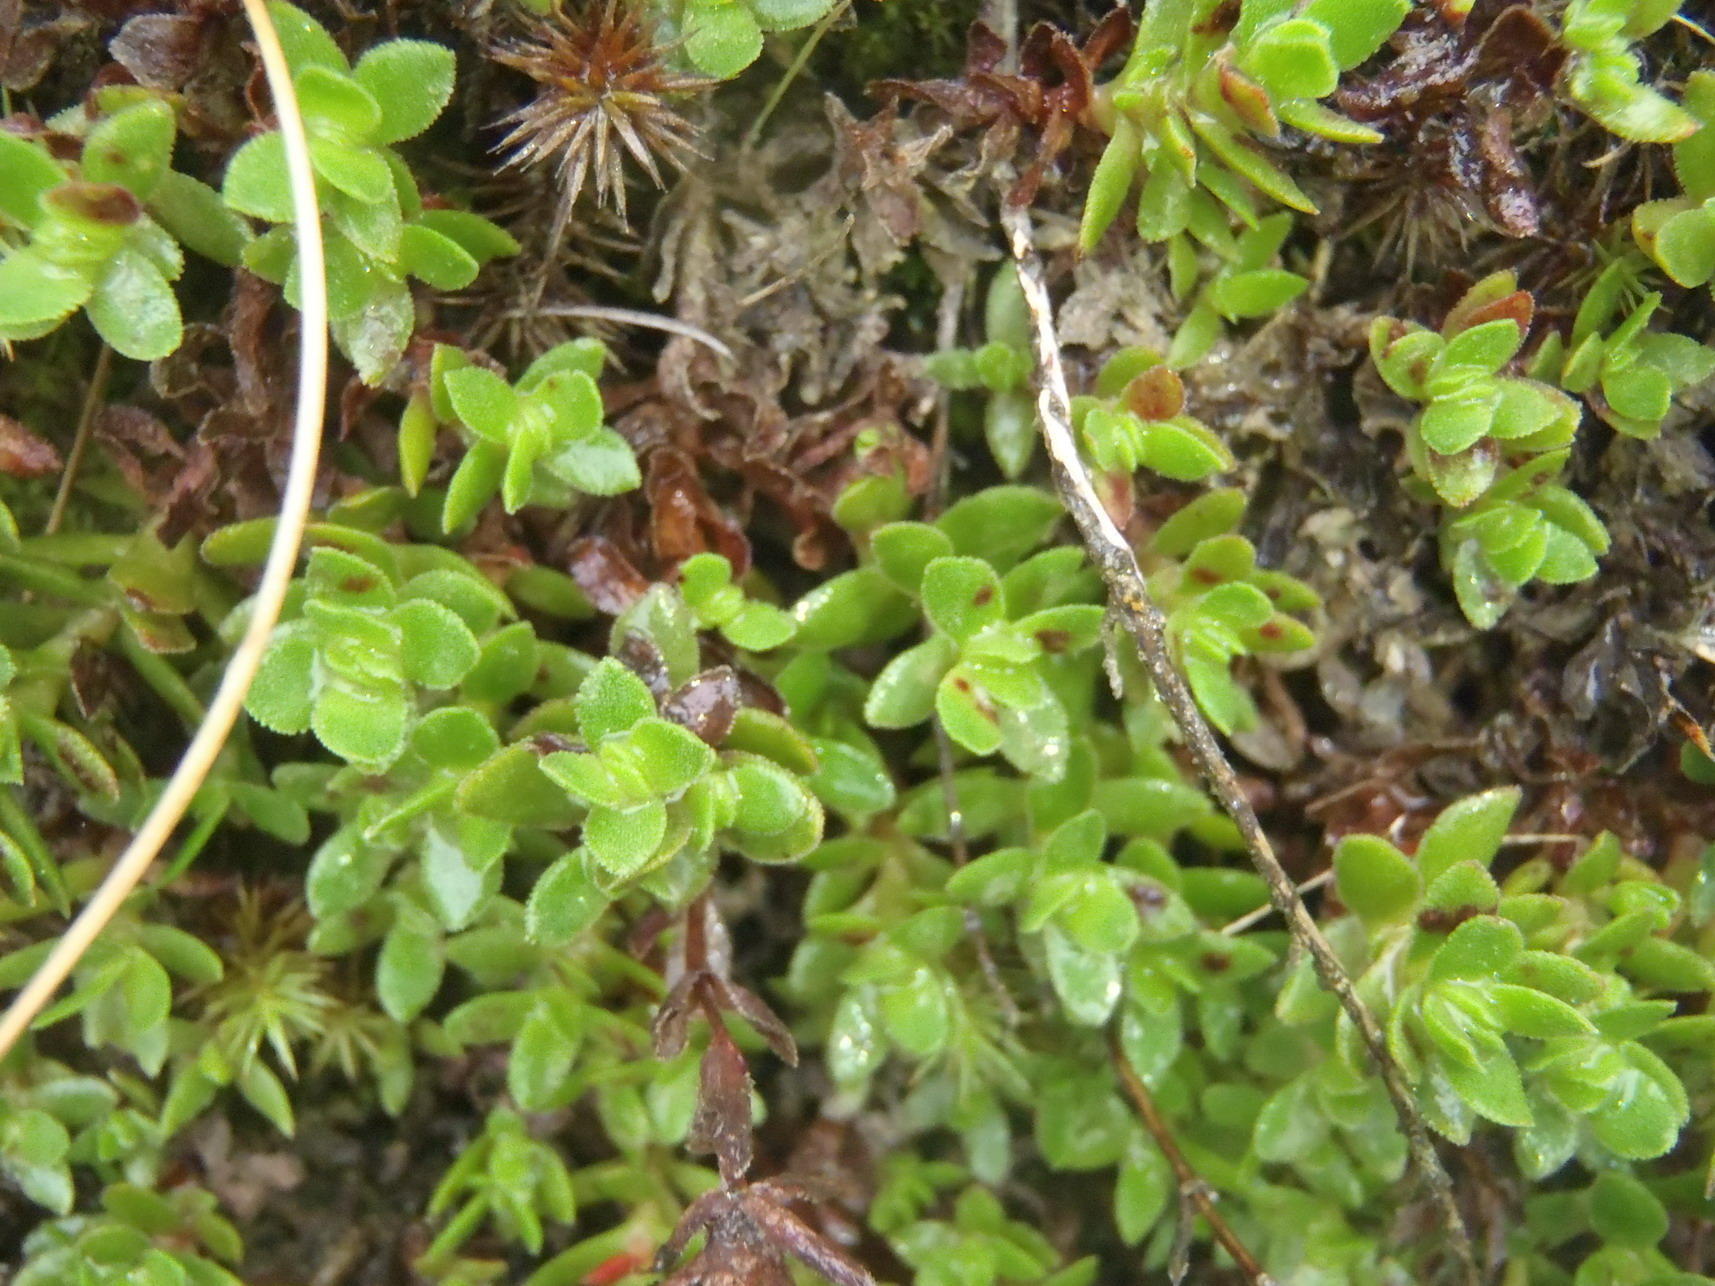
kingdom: Plantae
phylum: Tracheophyta
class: Magnoliopsida
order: Saxifragales
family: Crassulaceae
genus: Crassula
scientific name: Crassula obtusa
